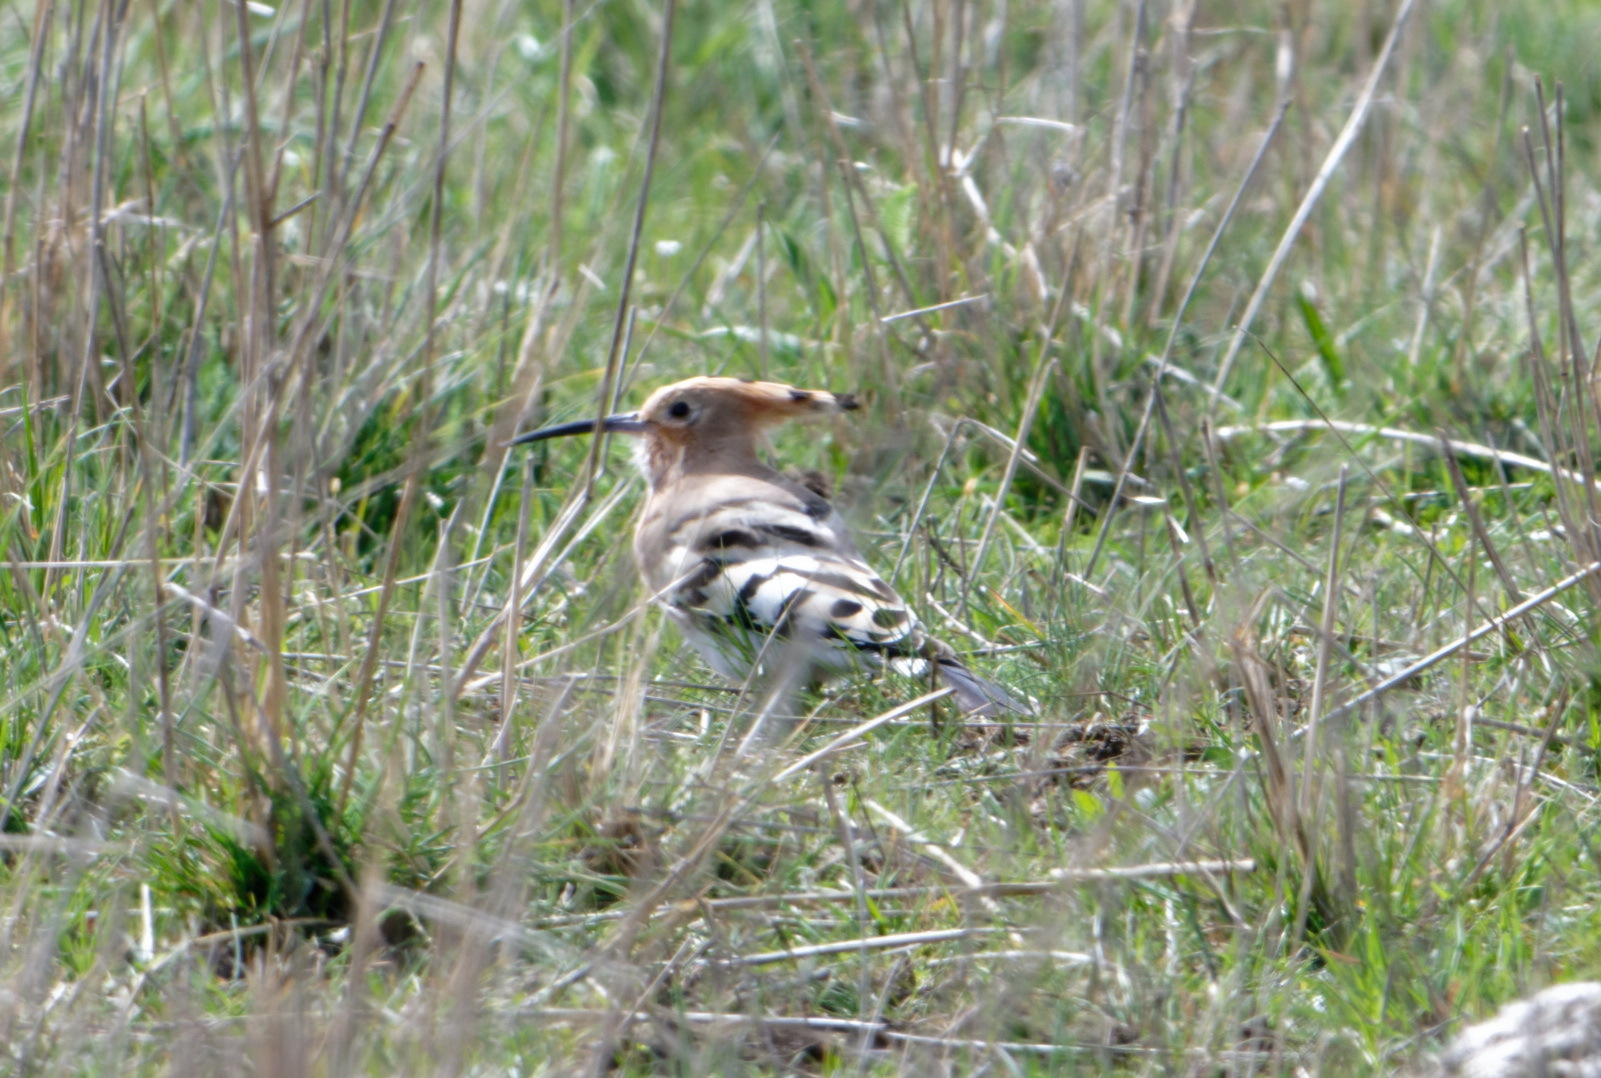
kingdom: Animalia
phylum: Chordata
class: Aves
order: Bucerotiformes
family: Upupidae
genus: Upupa
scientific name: Upupa epops
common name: Eurasian hoopoe
